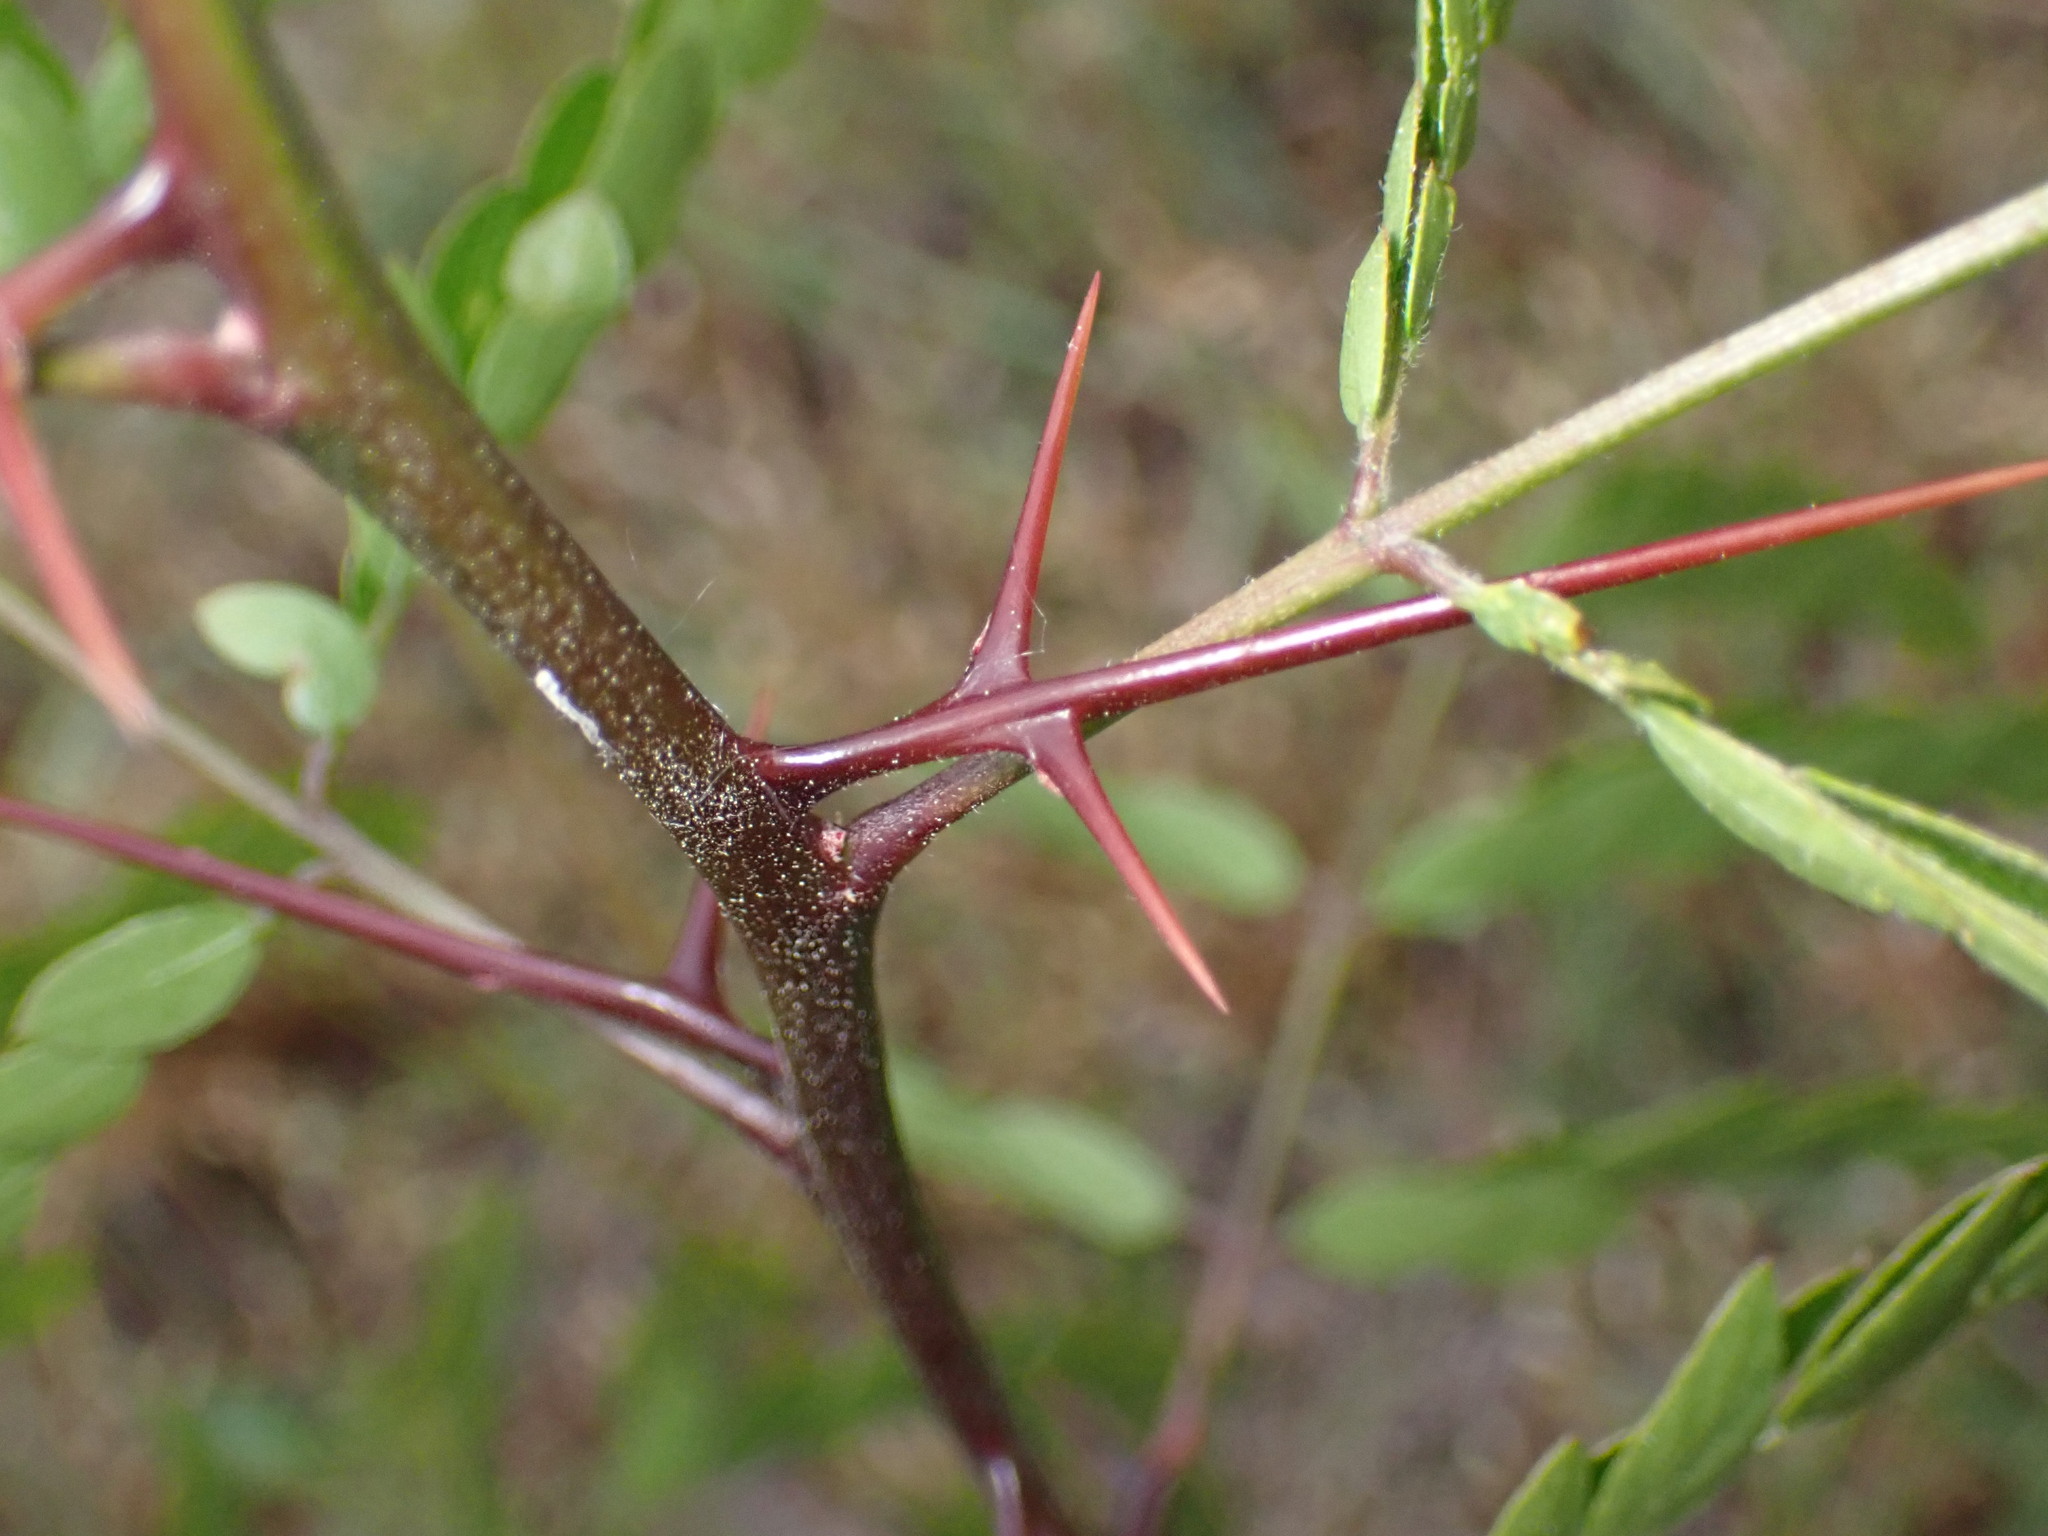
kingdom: Plantae
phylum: Tracheophyta
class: Magnoliopsida
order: Fabales
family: Fabaceae
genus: Gleditsia
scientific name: Gleditsia triacanthos
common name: Common honeylocust
